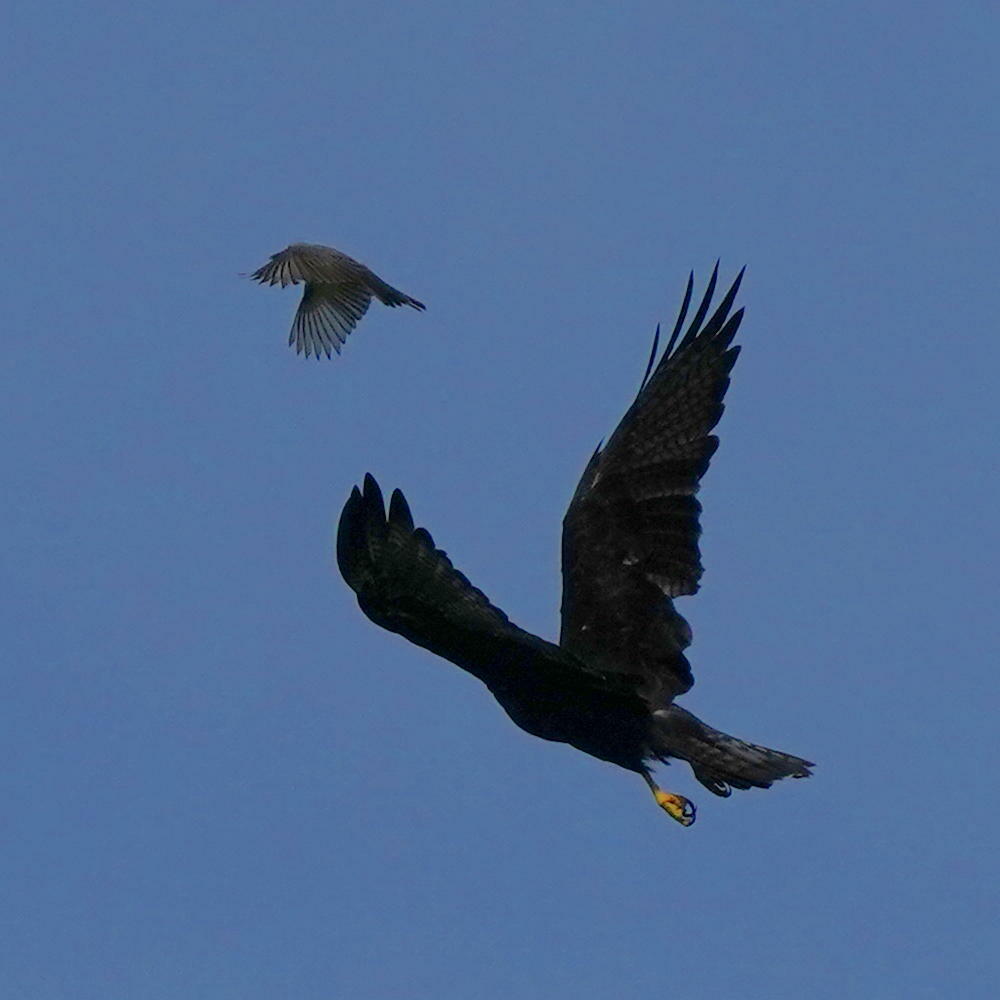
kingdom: Animalia
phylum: Chordata
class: Aves
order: Accipitriformes
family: Accipitridae
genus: Buteo
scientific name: Buteo albonotatus
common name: Zone-tailed hawk
